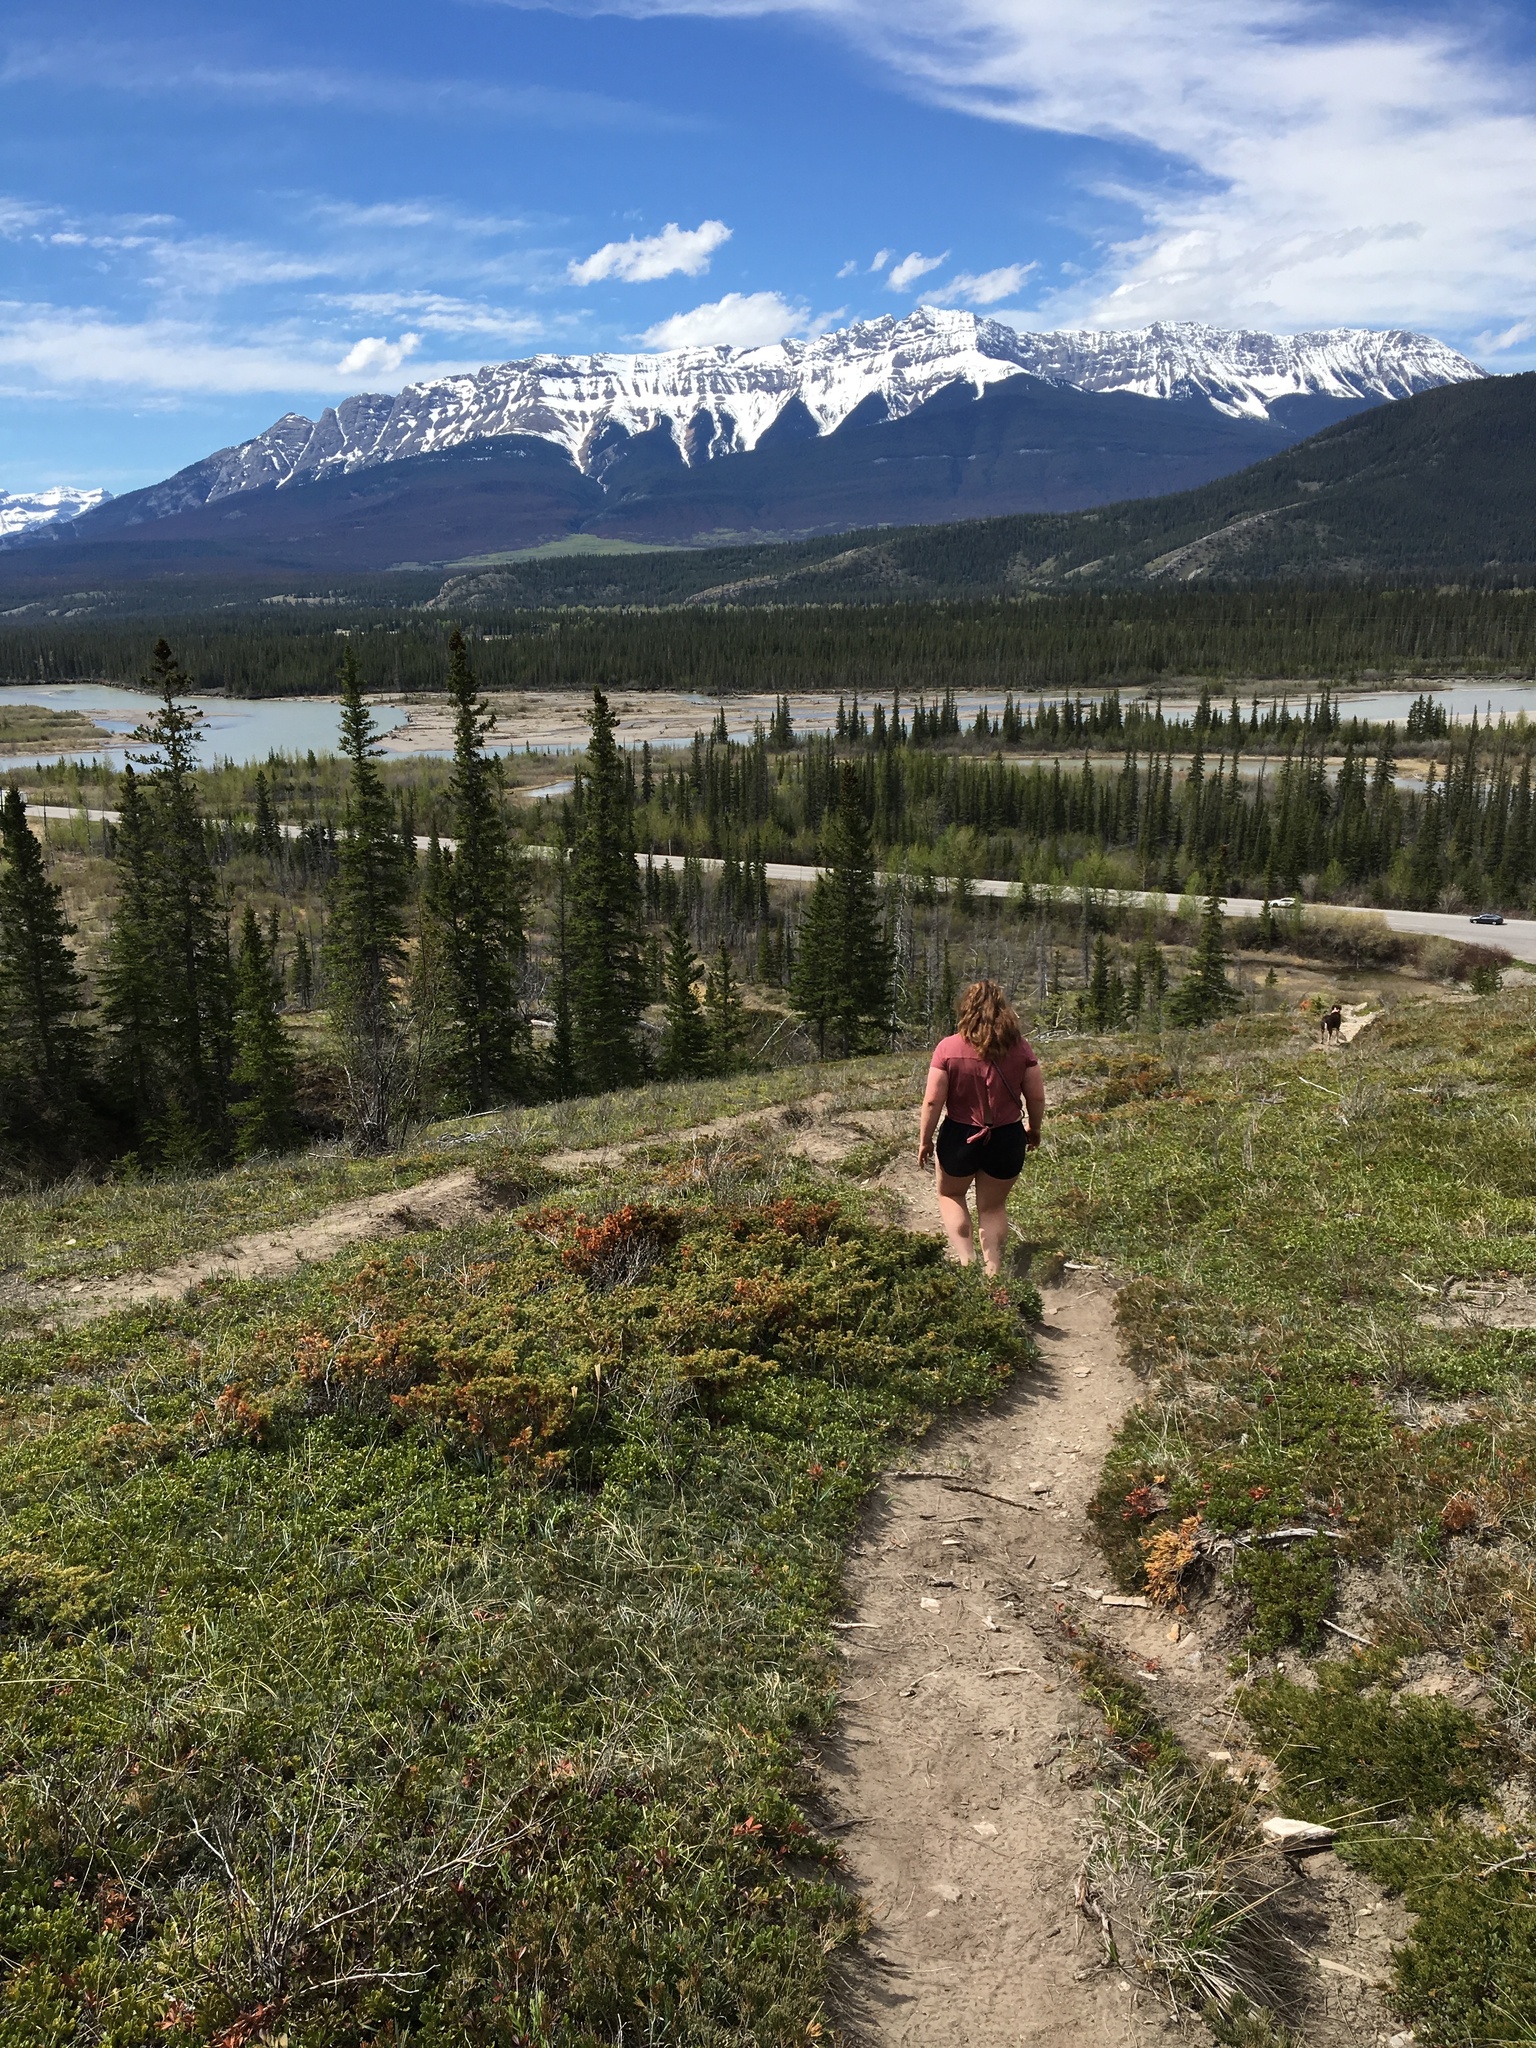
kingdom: Plantae
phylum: Tracheophyta
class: Pinopsida
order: Pinales
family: Cupressaceae
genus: Juniperus
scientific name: Juniperus communis
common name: Common juniper
